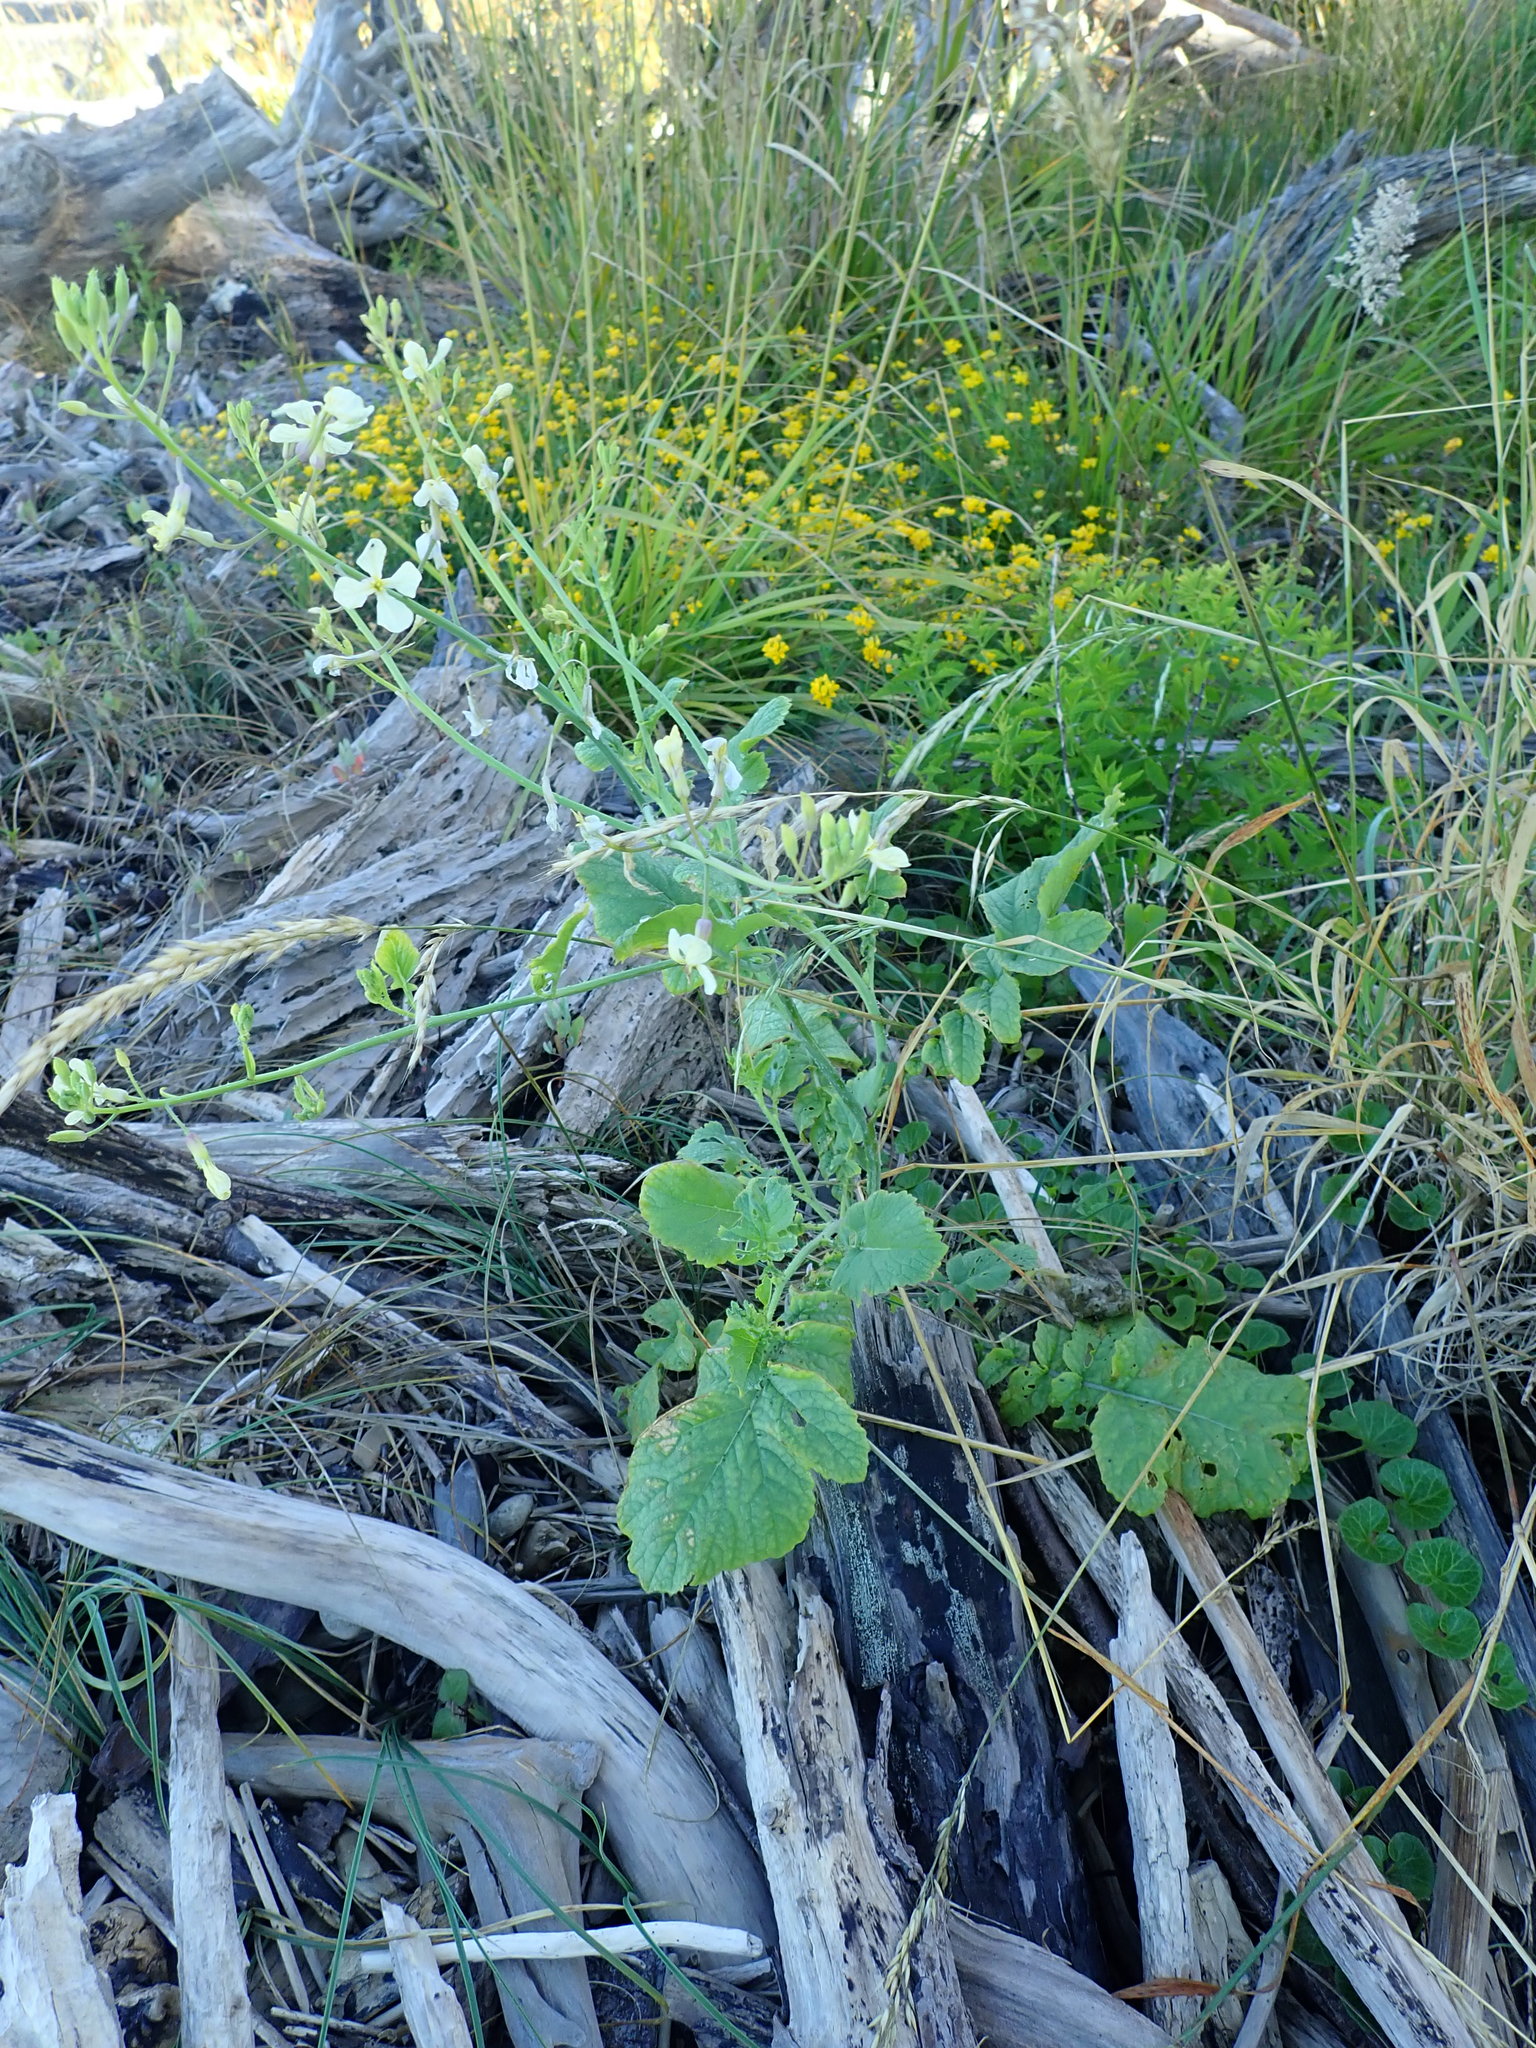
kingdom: Plantae
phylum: Tracheophyta
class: Magnoliopsida
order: Brassicales
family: Brassicaceae
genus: Raphanus
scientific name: Raphanus raphanistrum
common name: Wild radish
